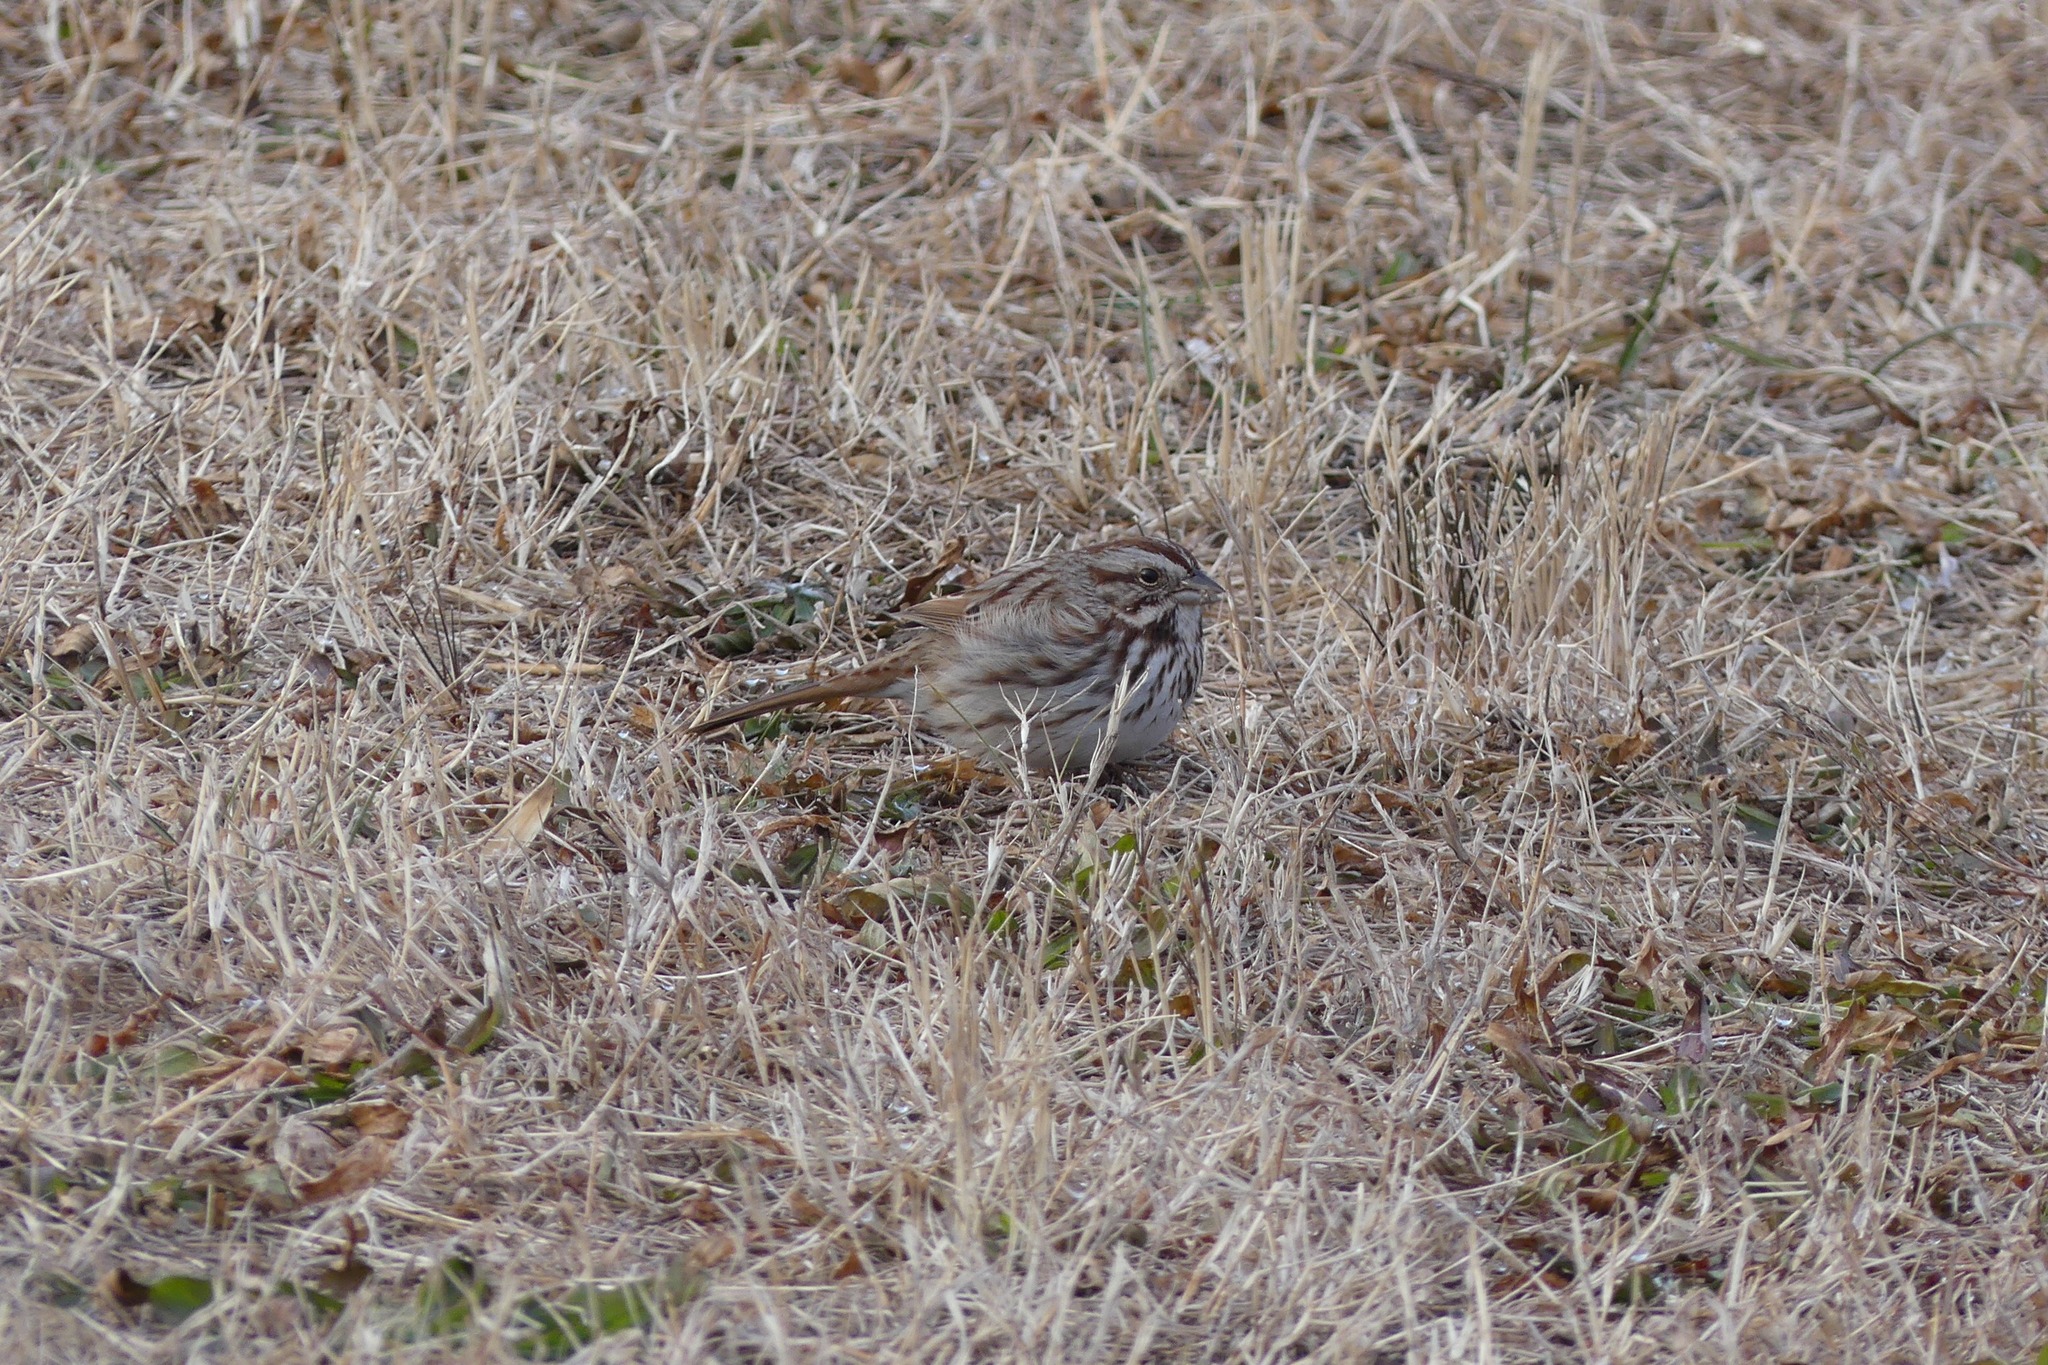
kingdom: Animalia
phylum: Chordata
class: Aves
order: Passeriformes
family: Passerellidae
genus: Melospiza
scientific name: Melospiza melodia
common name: Song sparrow
